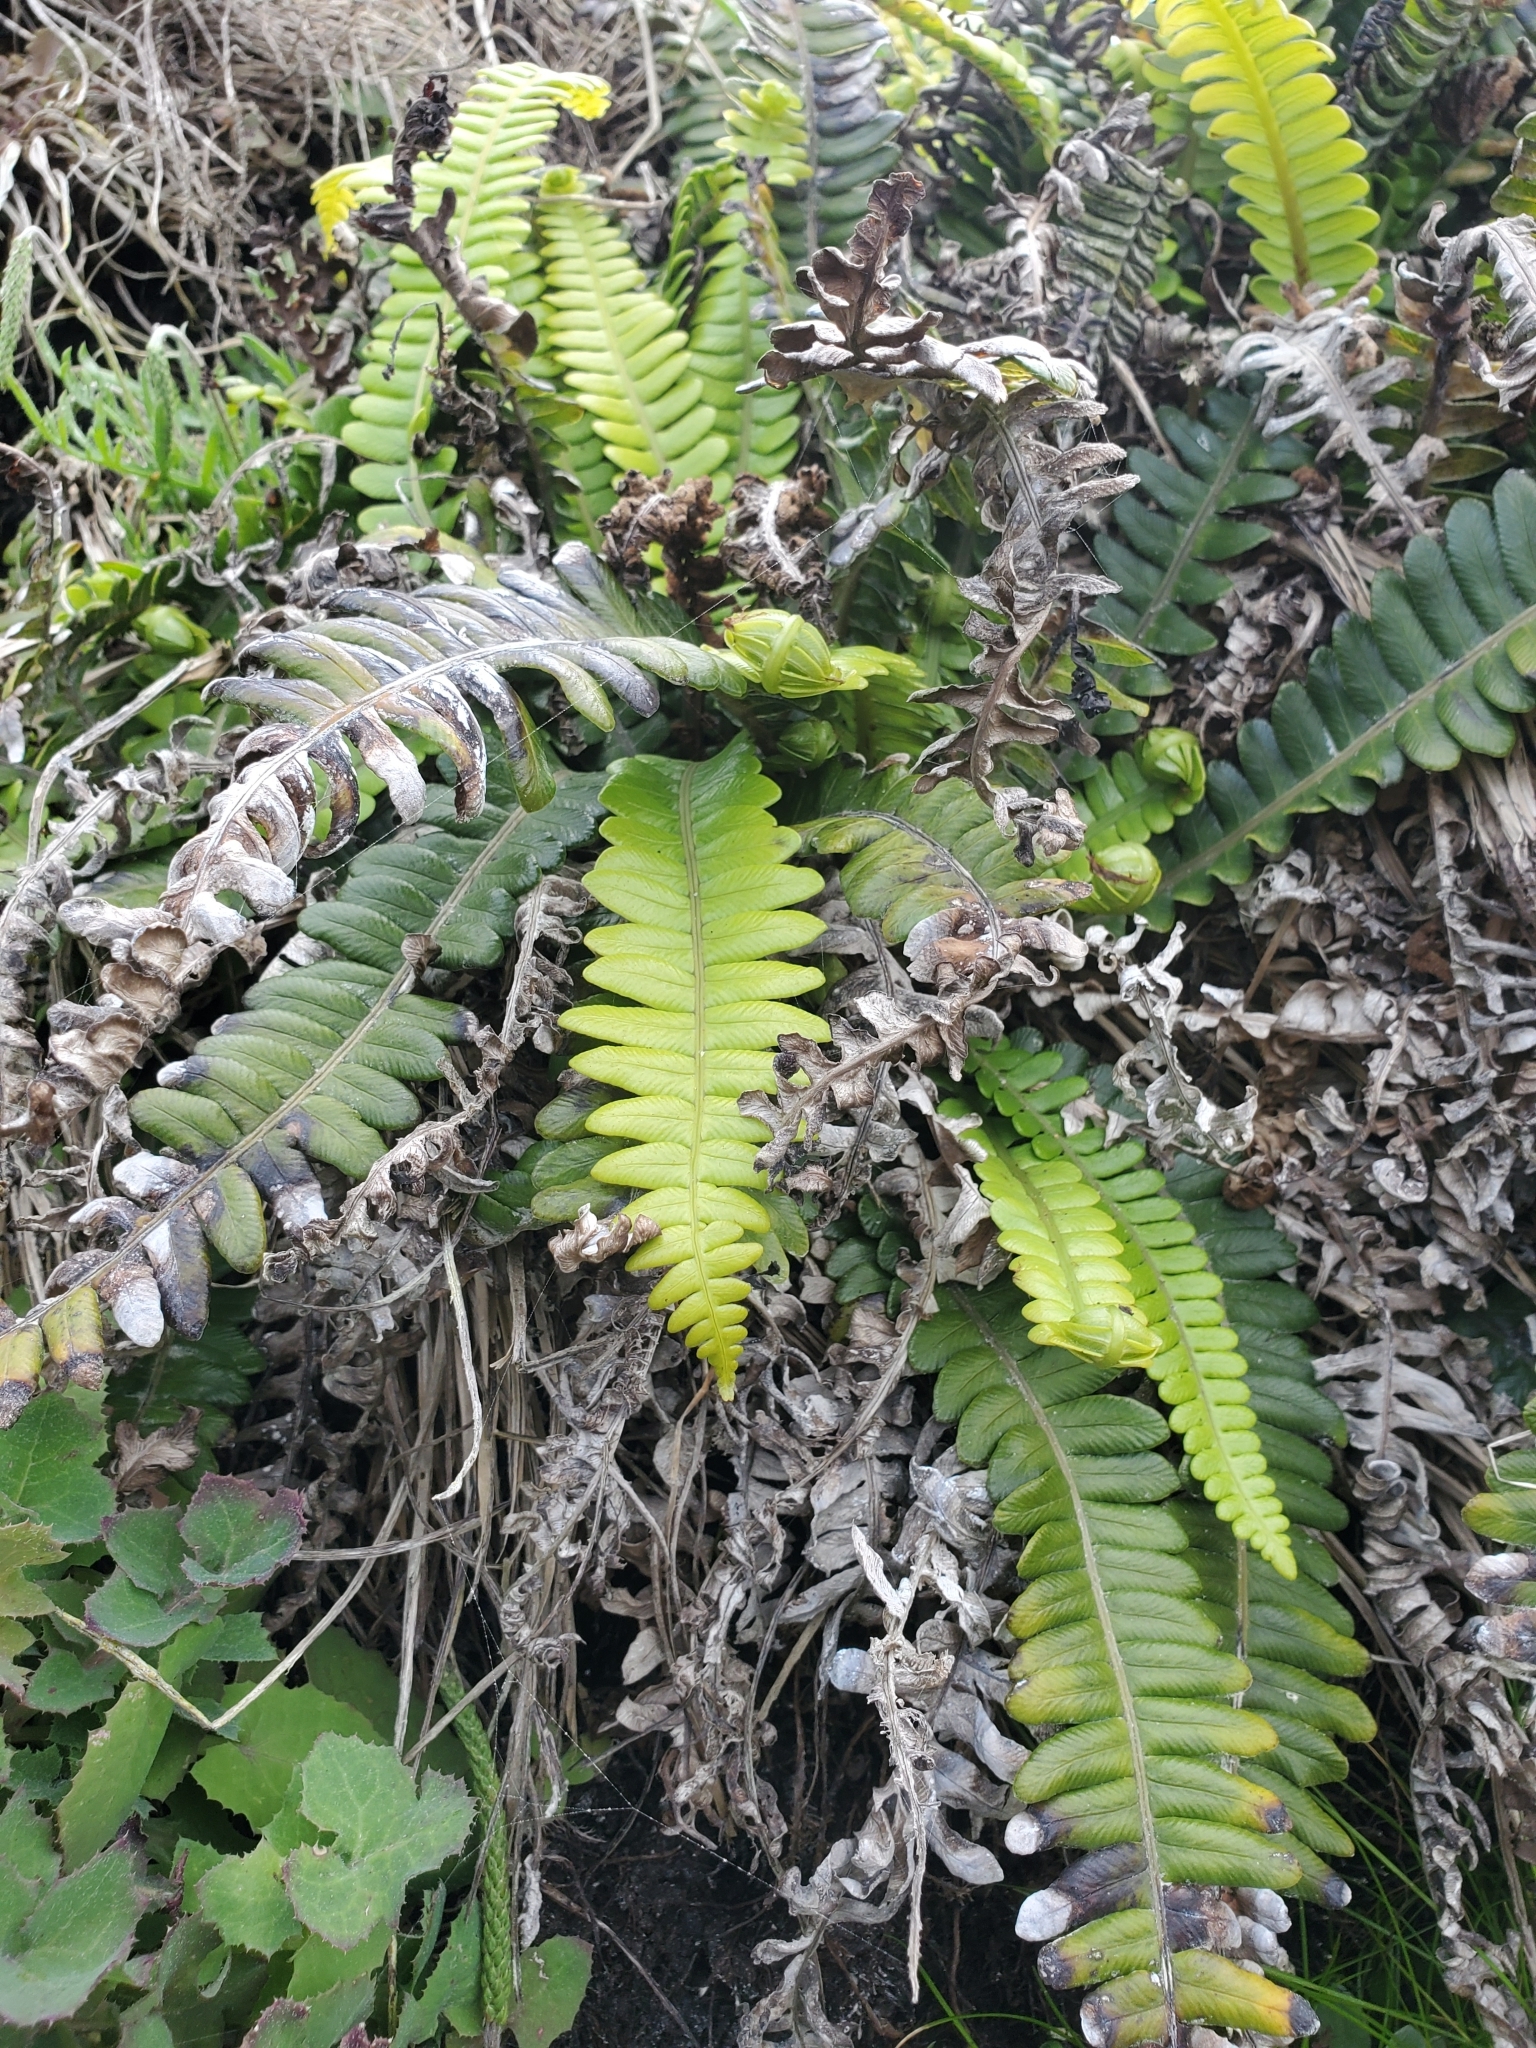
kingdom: Plantae
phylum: Tracheophyta
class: Polypodiopsida
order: Polypodiales
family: Blechnaceae
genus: Austroblechnum
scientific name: Austroblechnum durum
